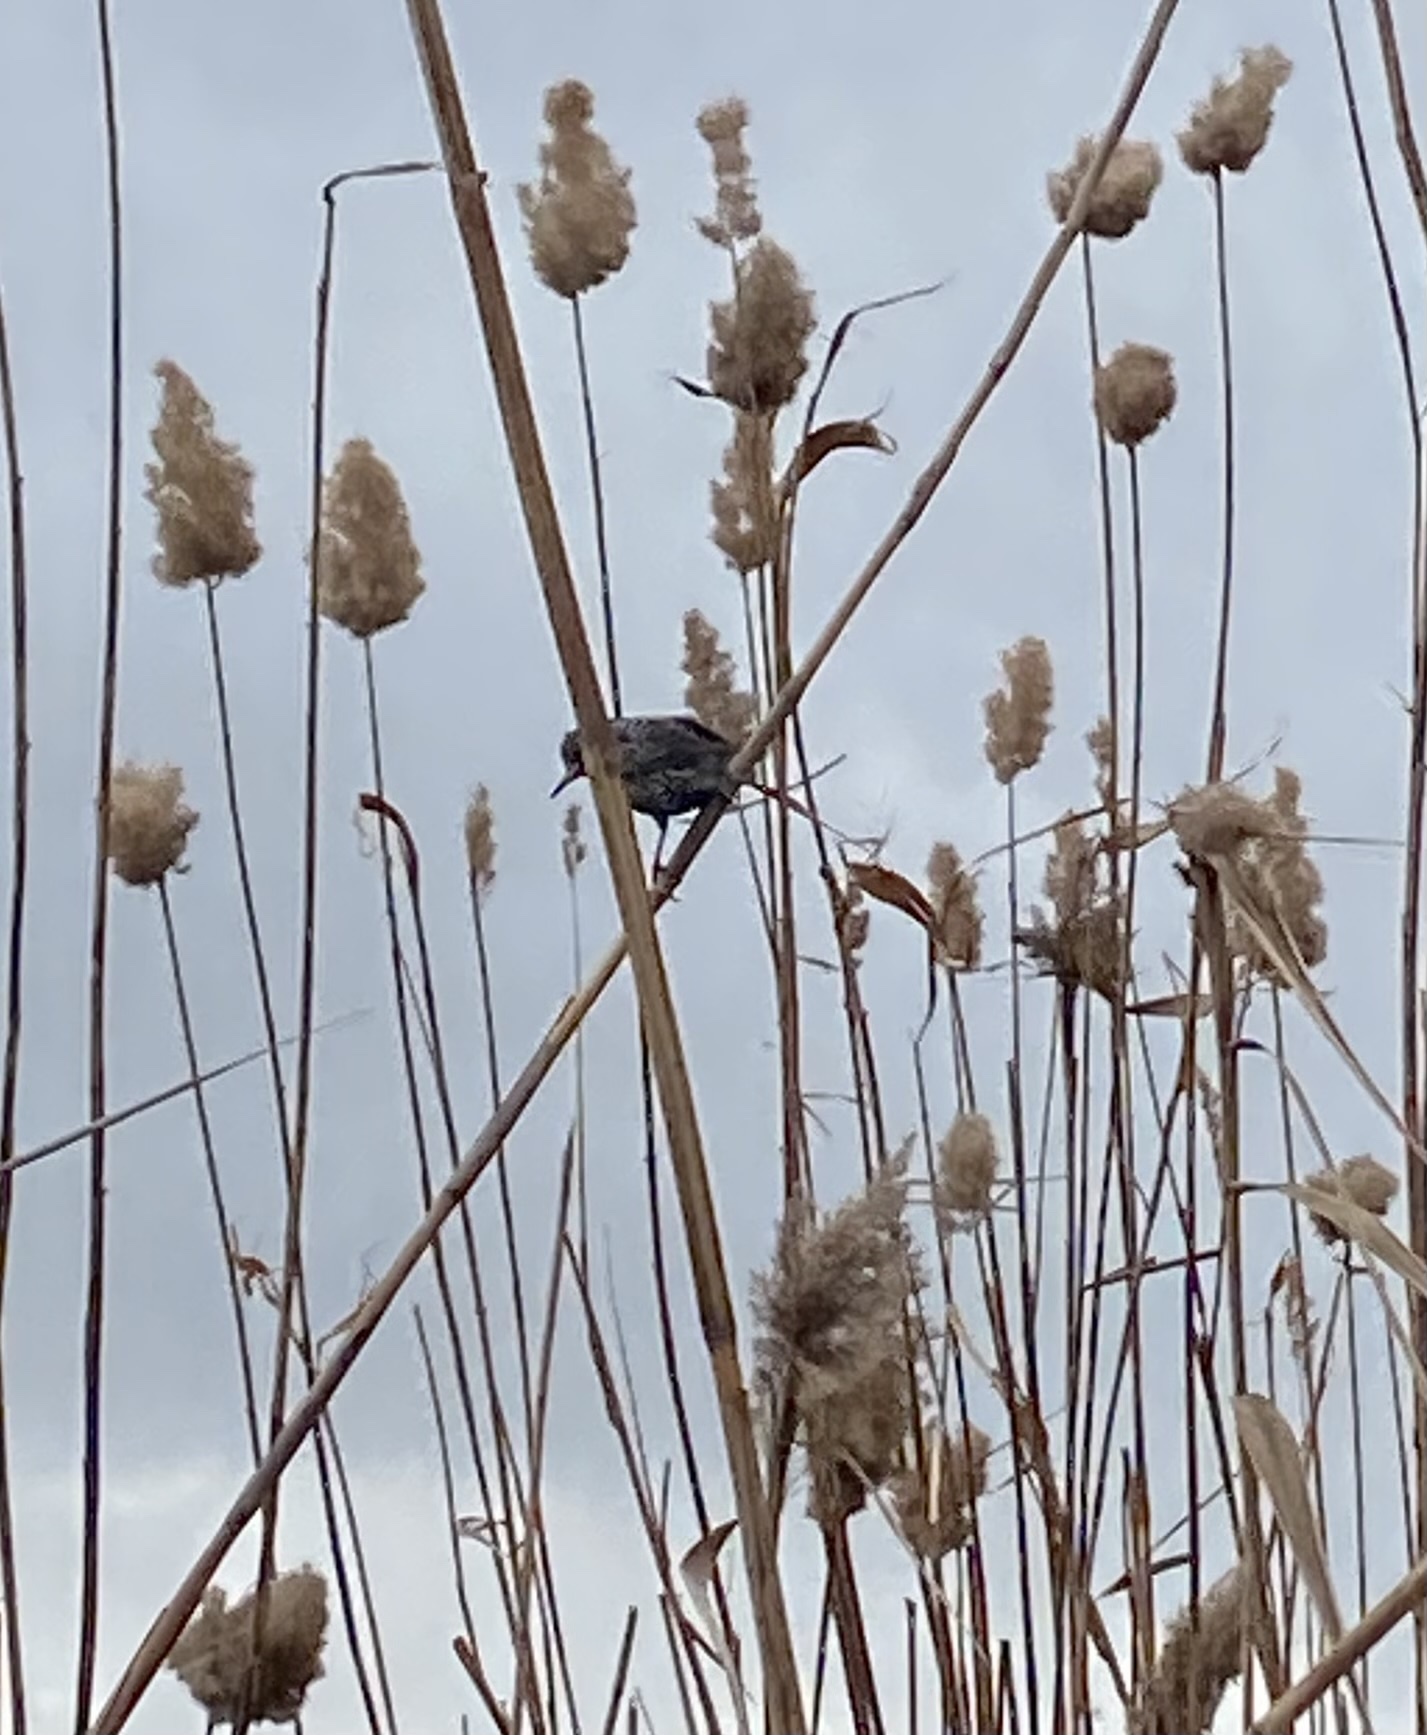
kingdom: Animalia
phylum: Chordata
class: Aves
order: Passeriformes
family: Sturnidae
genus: Sturnus
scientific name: Sturnus vulgaris
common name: Common starling
